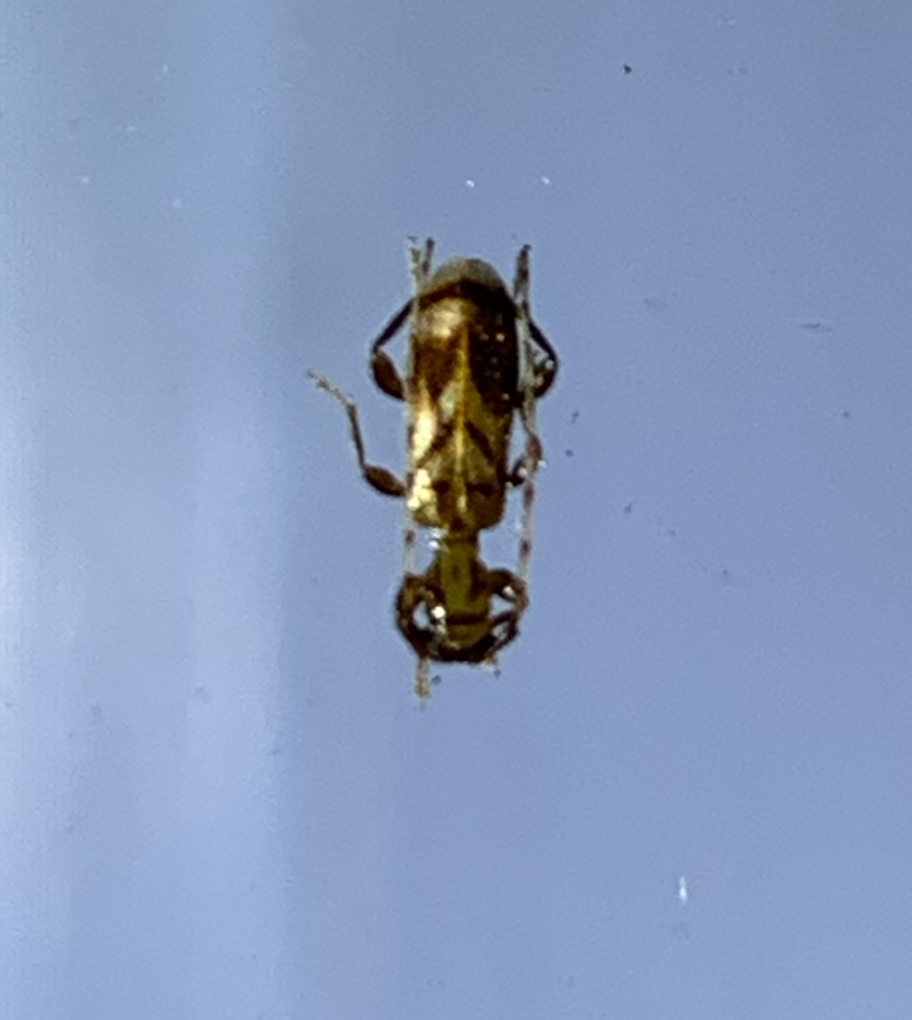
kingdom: Animalia
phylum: Arthropoda
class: Insecta
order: Coleoptera
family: Cerambycidae
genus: Obrium
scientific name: Obrium maculatum
